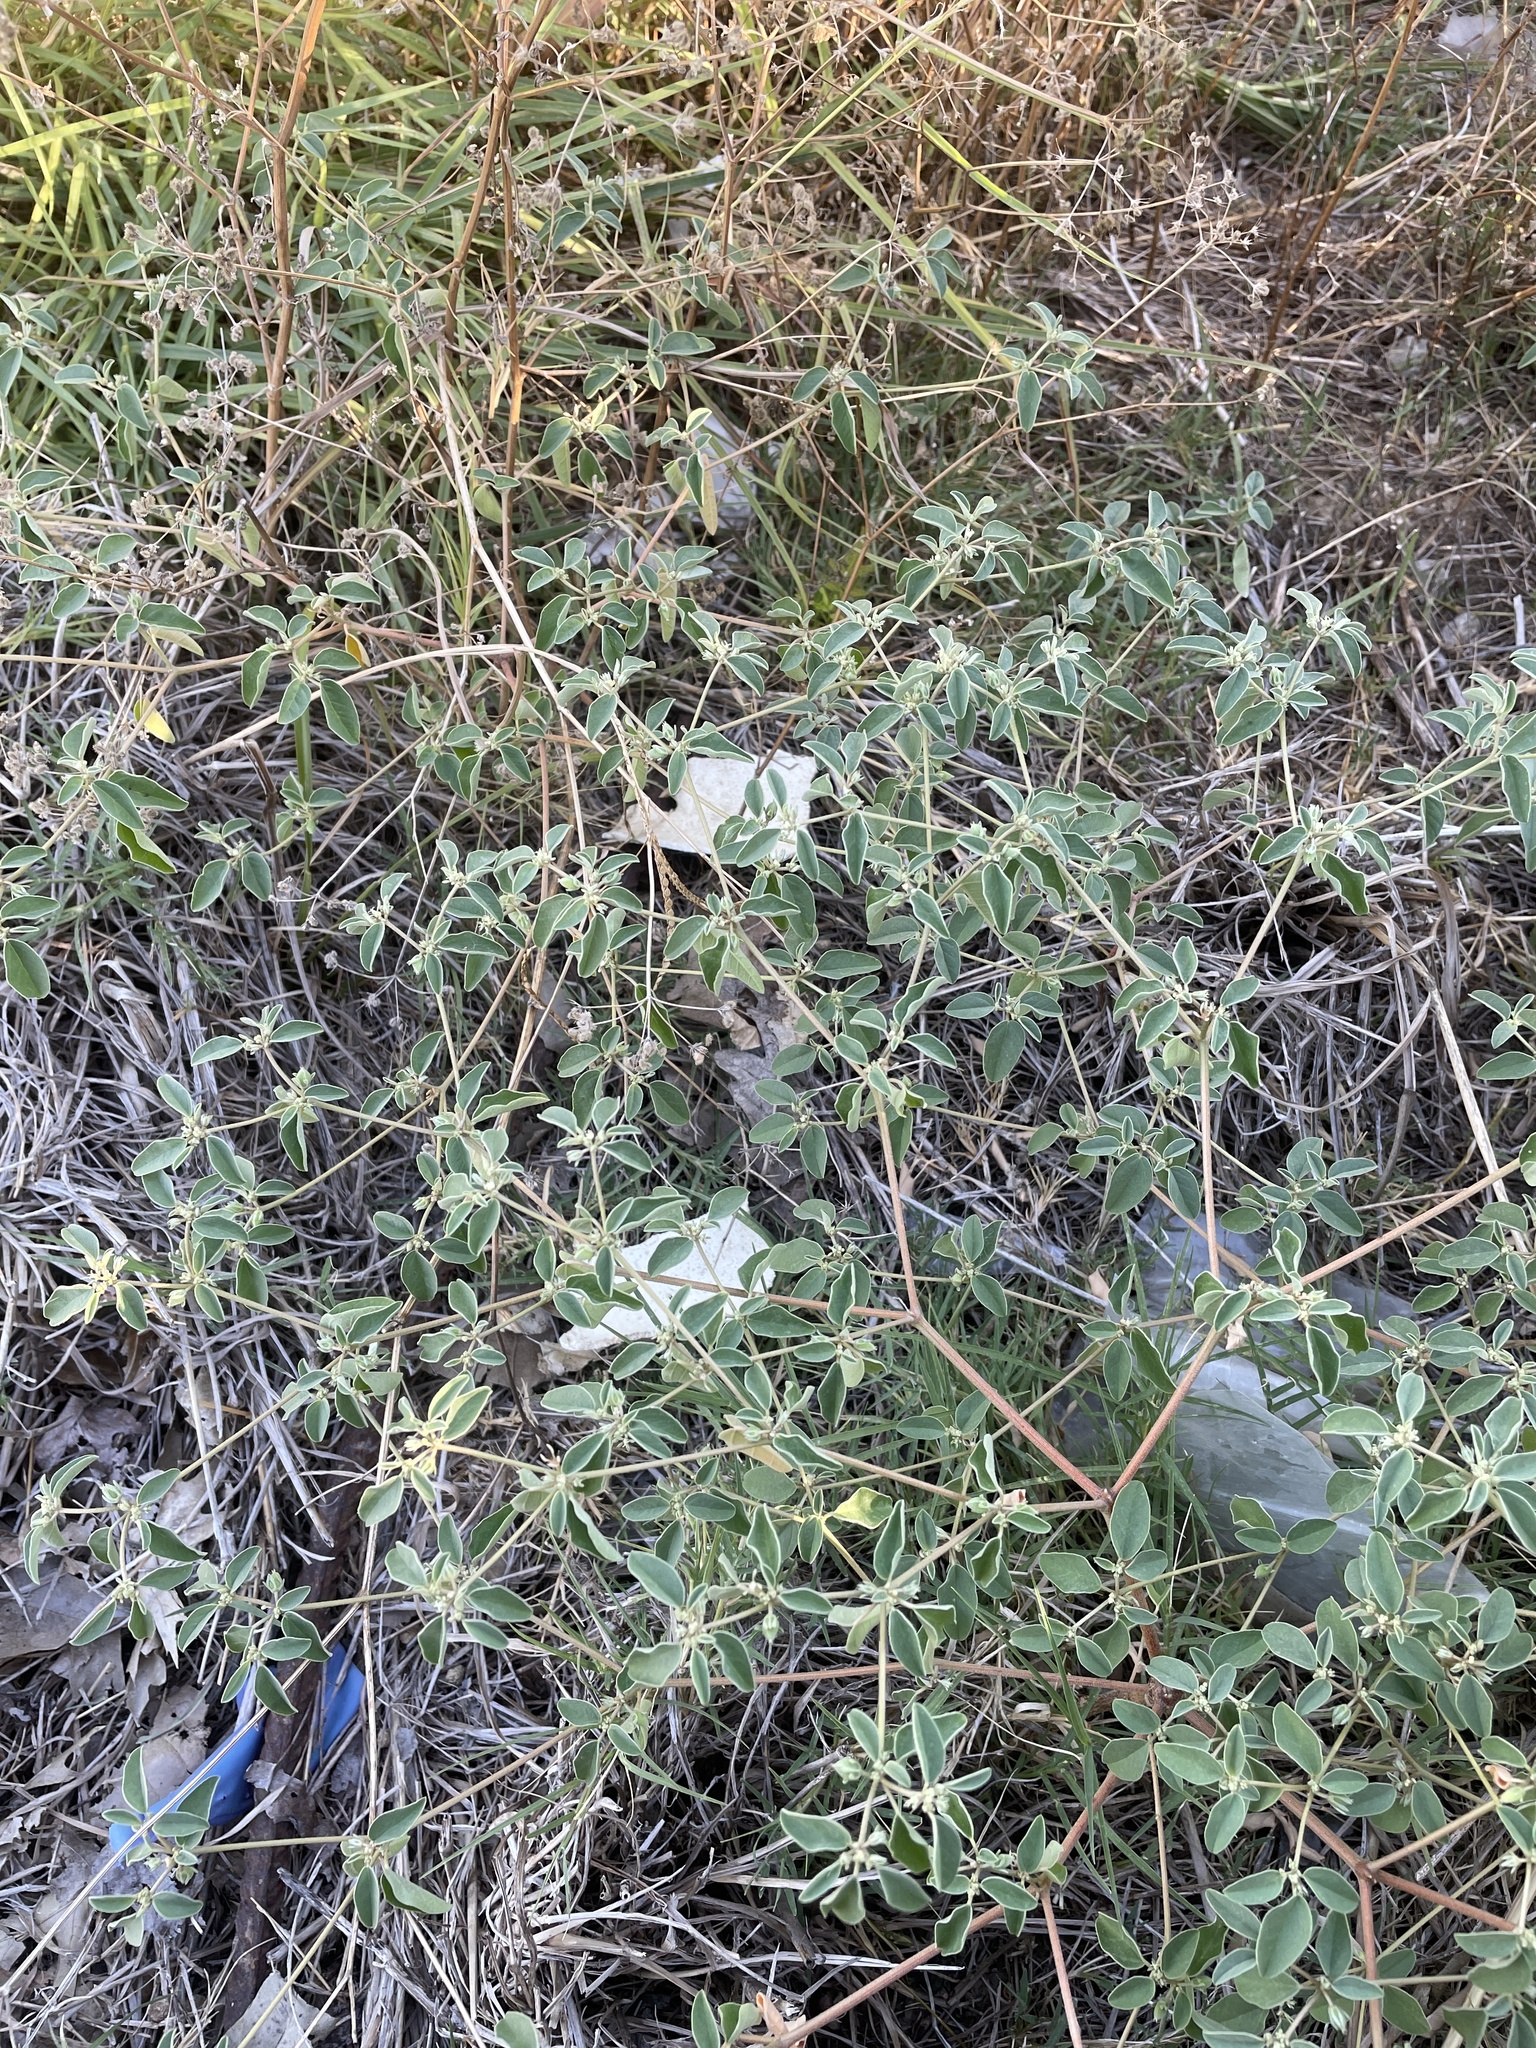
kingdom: Plantae
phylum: Tracheophyta
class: Magnoliopsida
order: Malpighiales
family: Euphorbiaceae
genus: Croton
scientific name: Croton monanthogynus
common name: One-seed croton
